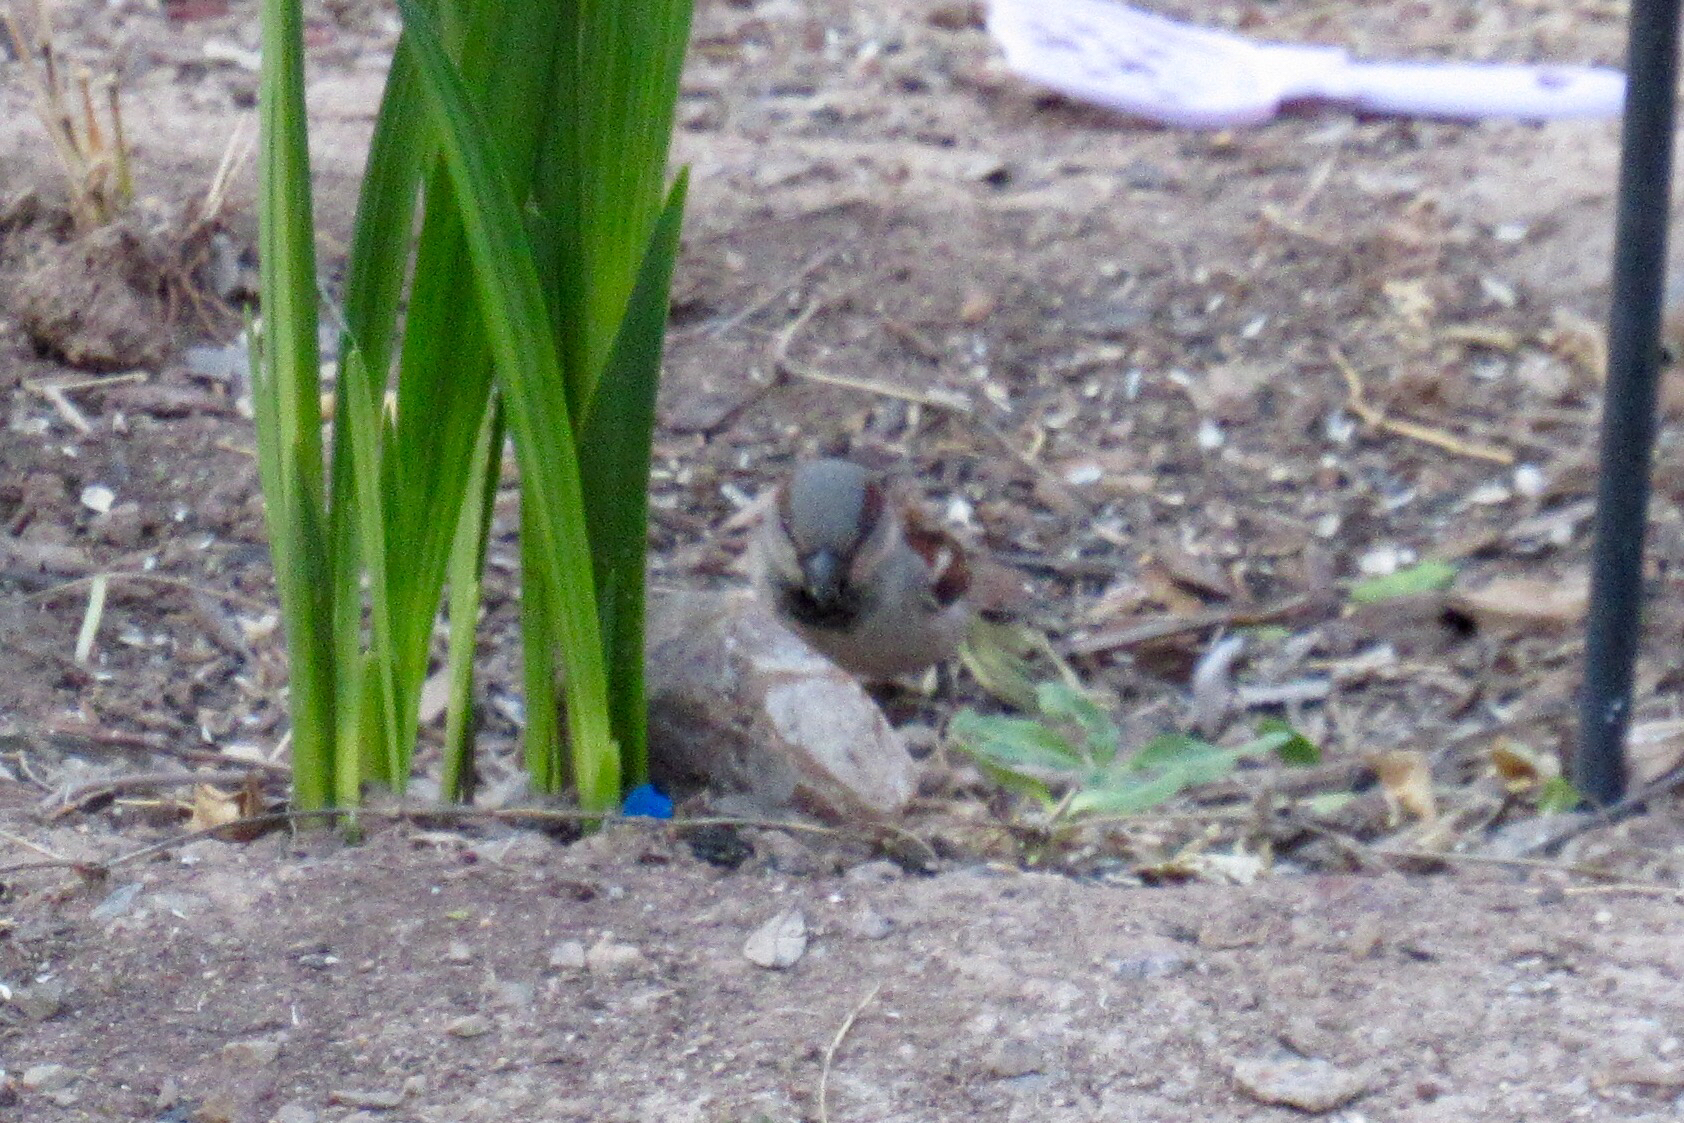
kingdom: Animalia
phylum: Chordata
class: Aves
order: Passeriformes
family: Passeridae
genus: Passer
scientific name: Passer domesticus
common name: House sparrow
